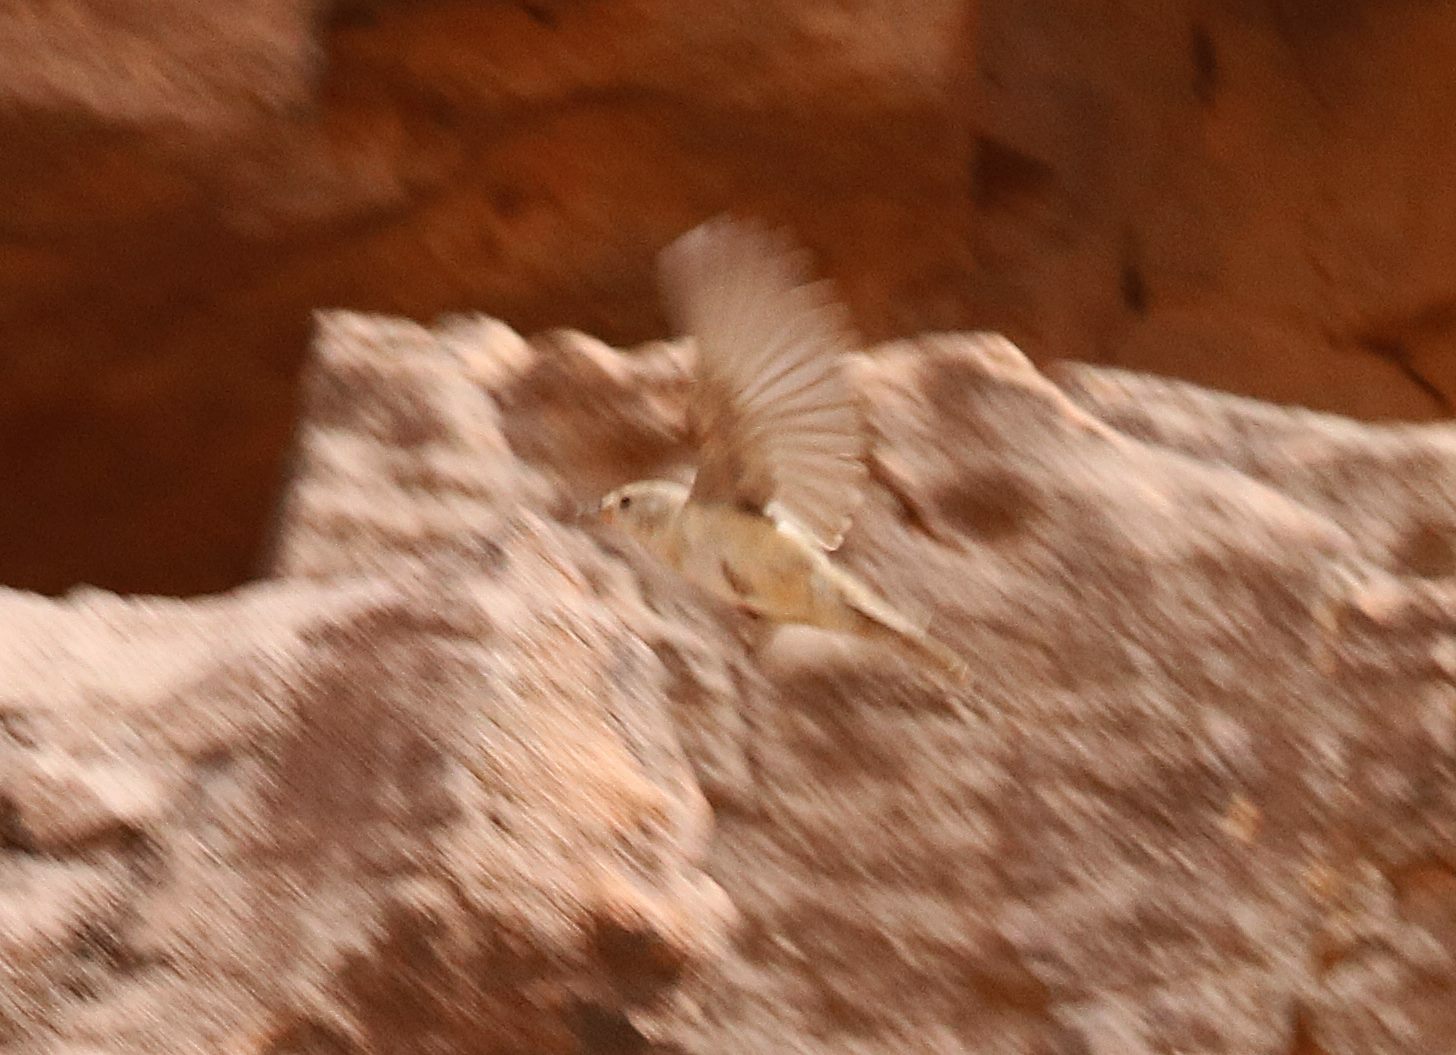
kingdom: Animalia
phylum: Chordata
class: Aves
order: Passeriformes
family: Passeridae
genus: Passer
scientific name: Passer luteus
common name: Sudan golden sparrow
